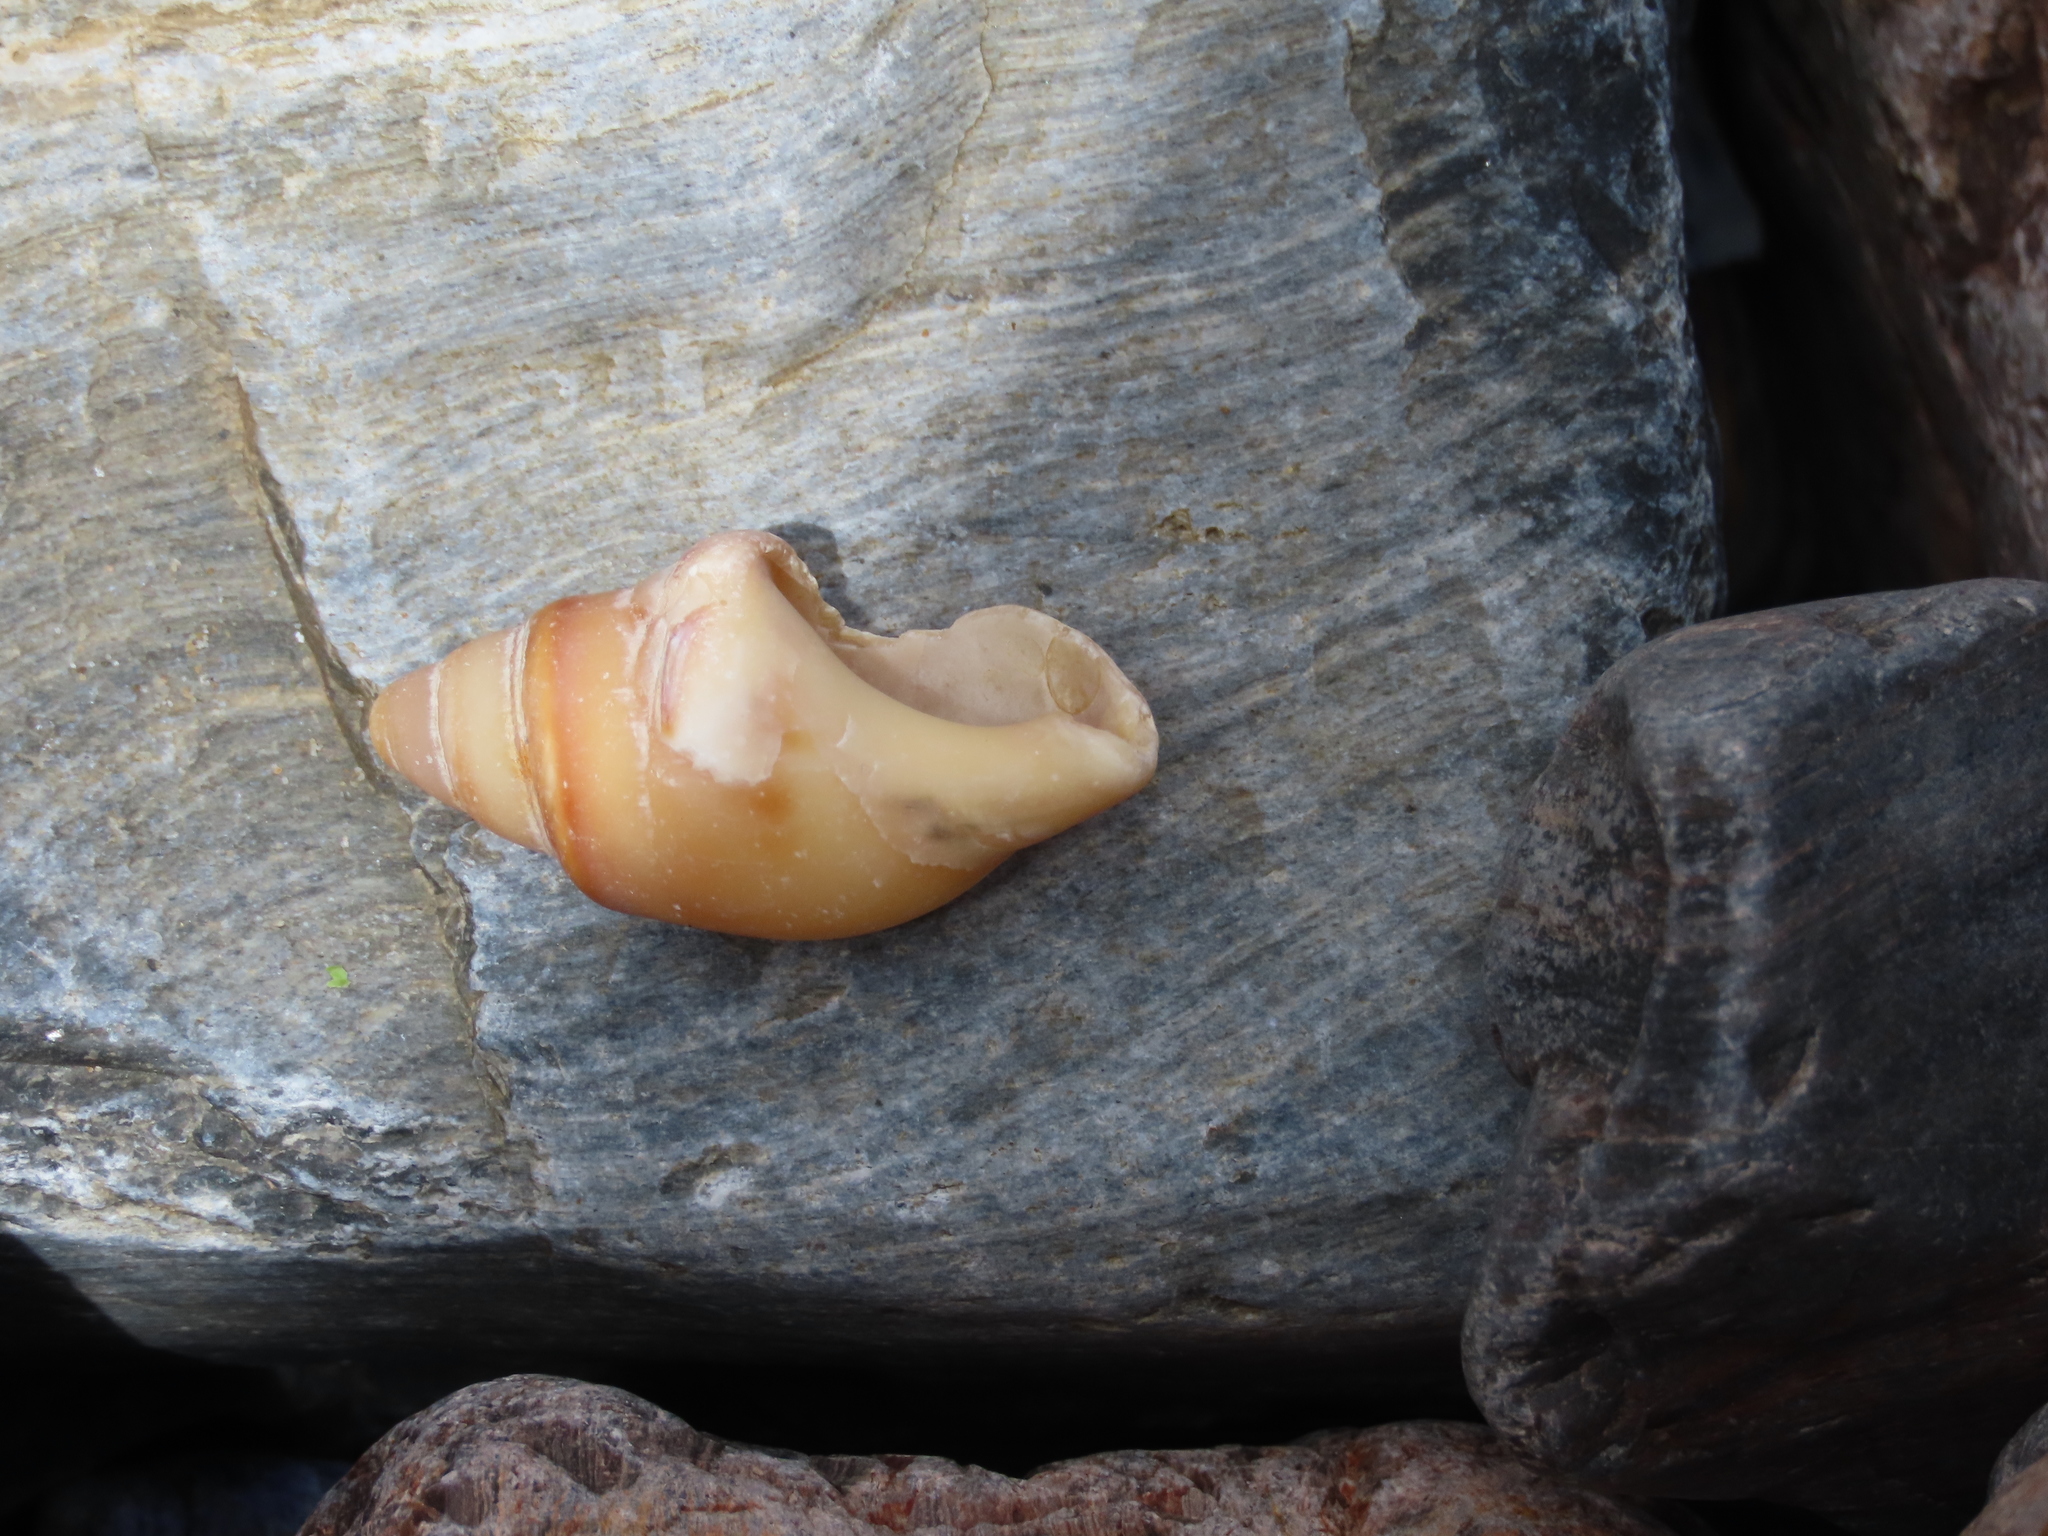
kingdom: Animalia
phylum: Mollusca
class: Gastropoda
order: Neogastropoda
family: Buccinanopsidae
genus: Buccinanops
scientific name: Buccinanops cochlidium
